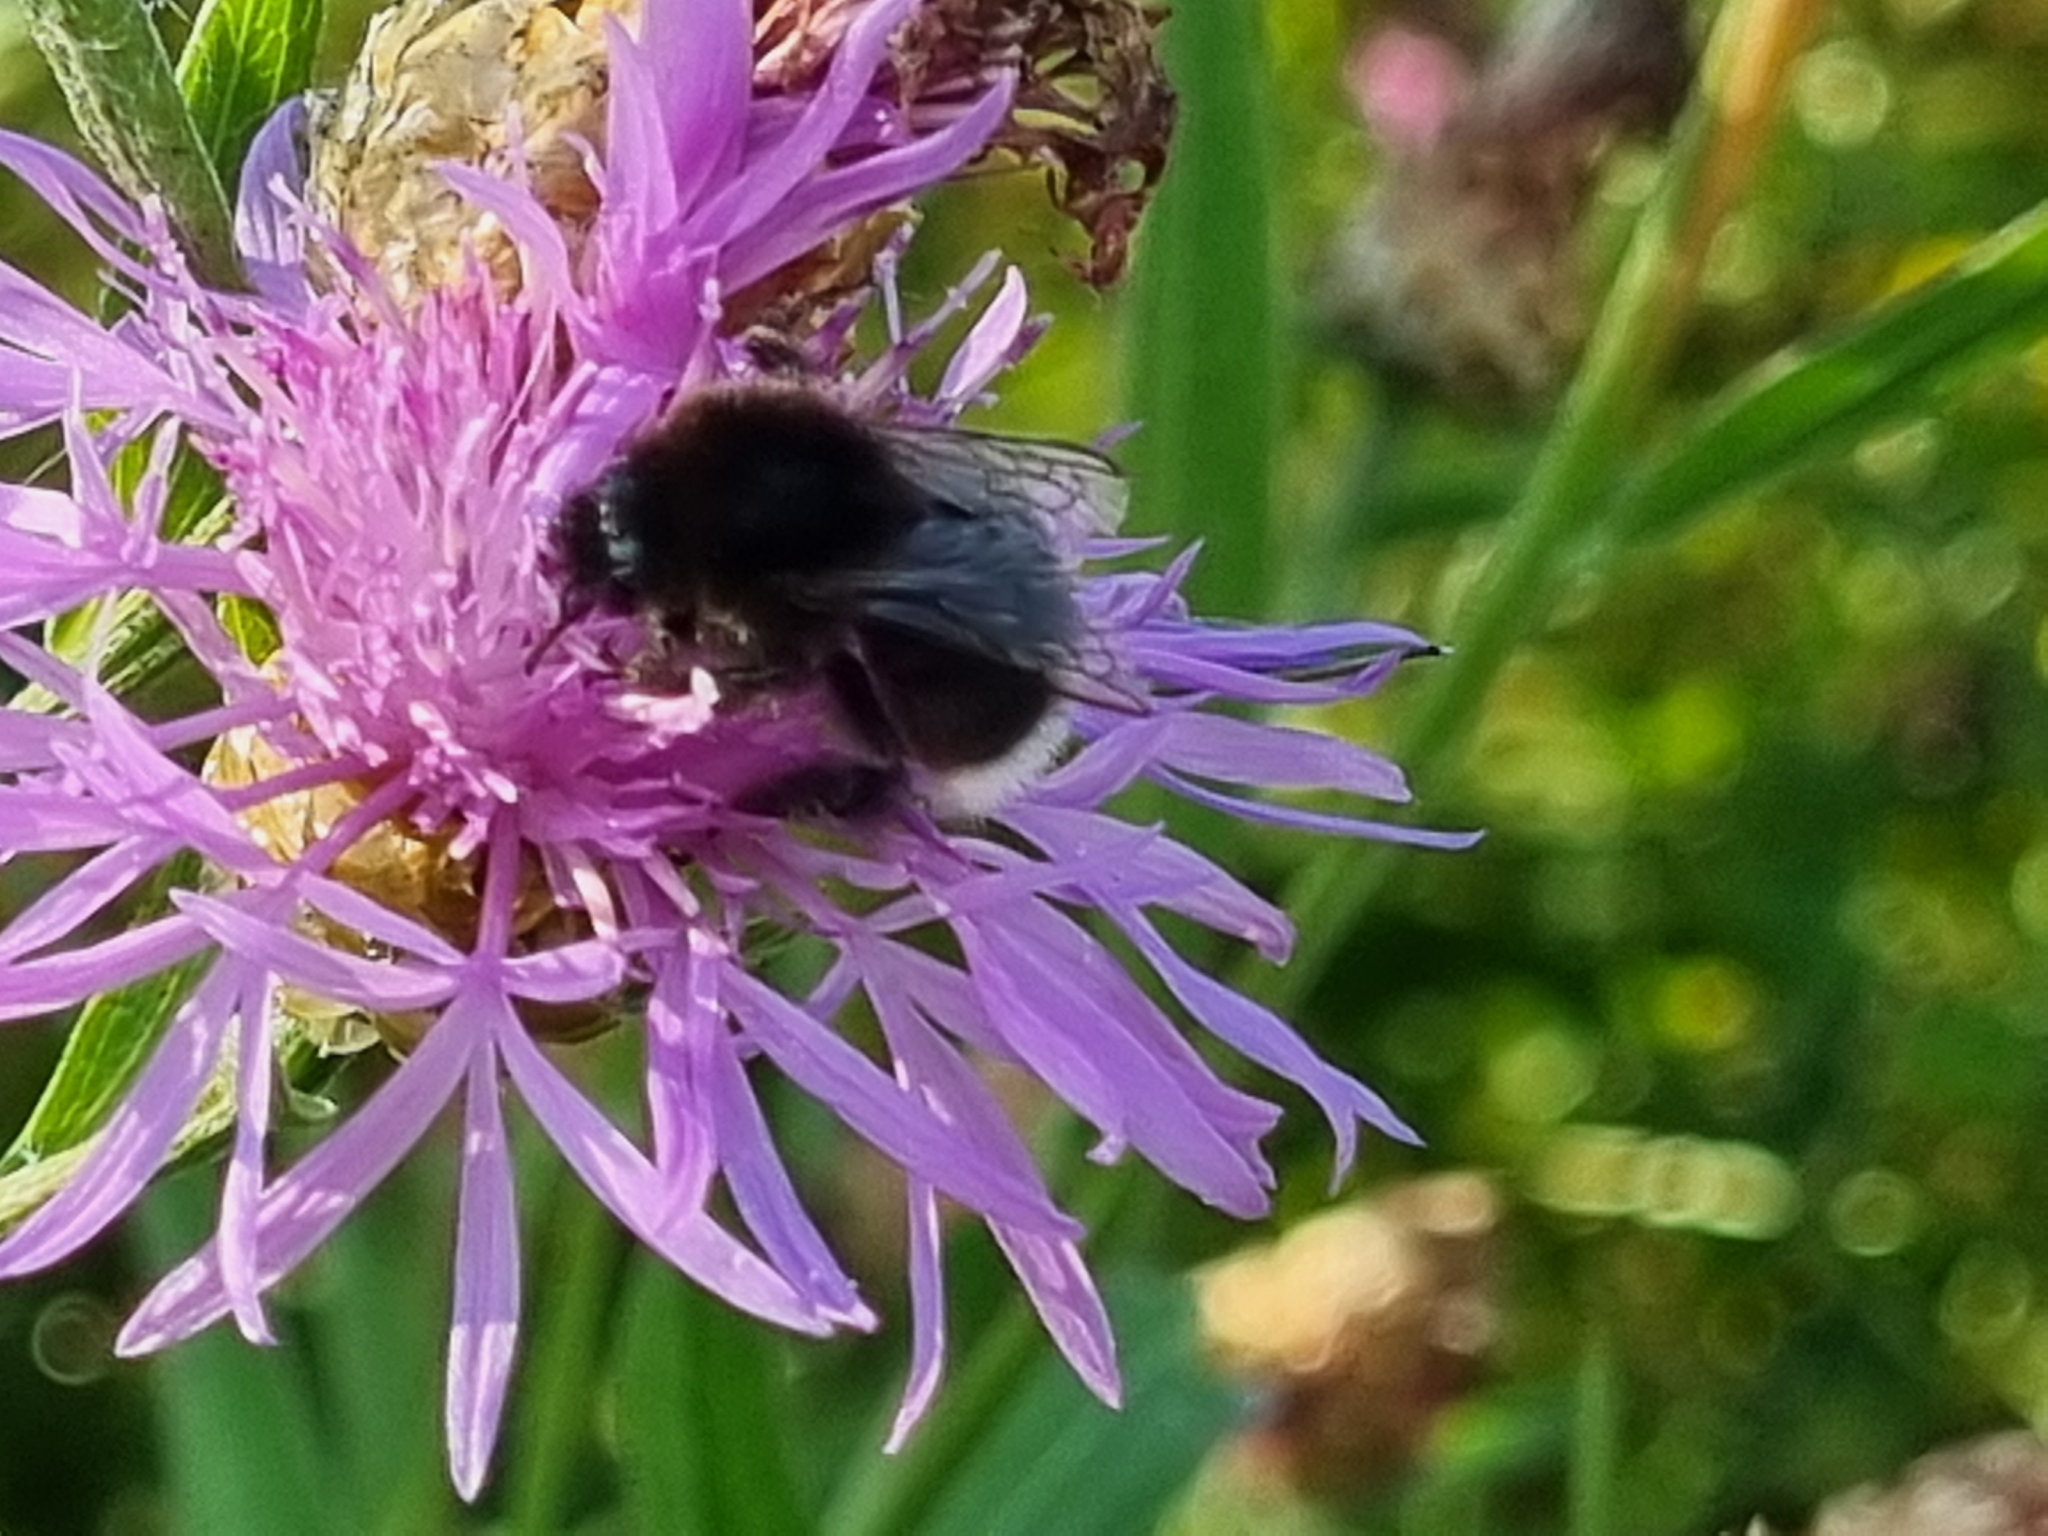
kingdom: Animalia
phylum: Arthropoda
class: Insecta
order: Hymenoptera
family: Apidae
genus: Bombus
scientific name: Bombus soroeensis
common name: Broken-belted humble-bee
